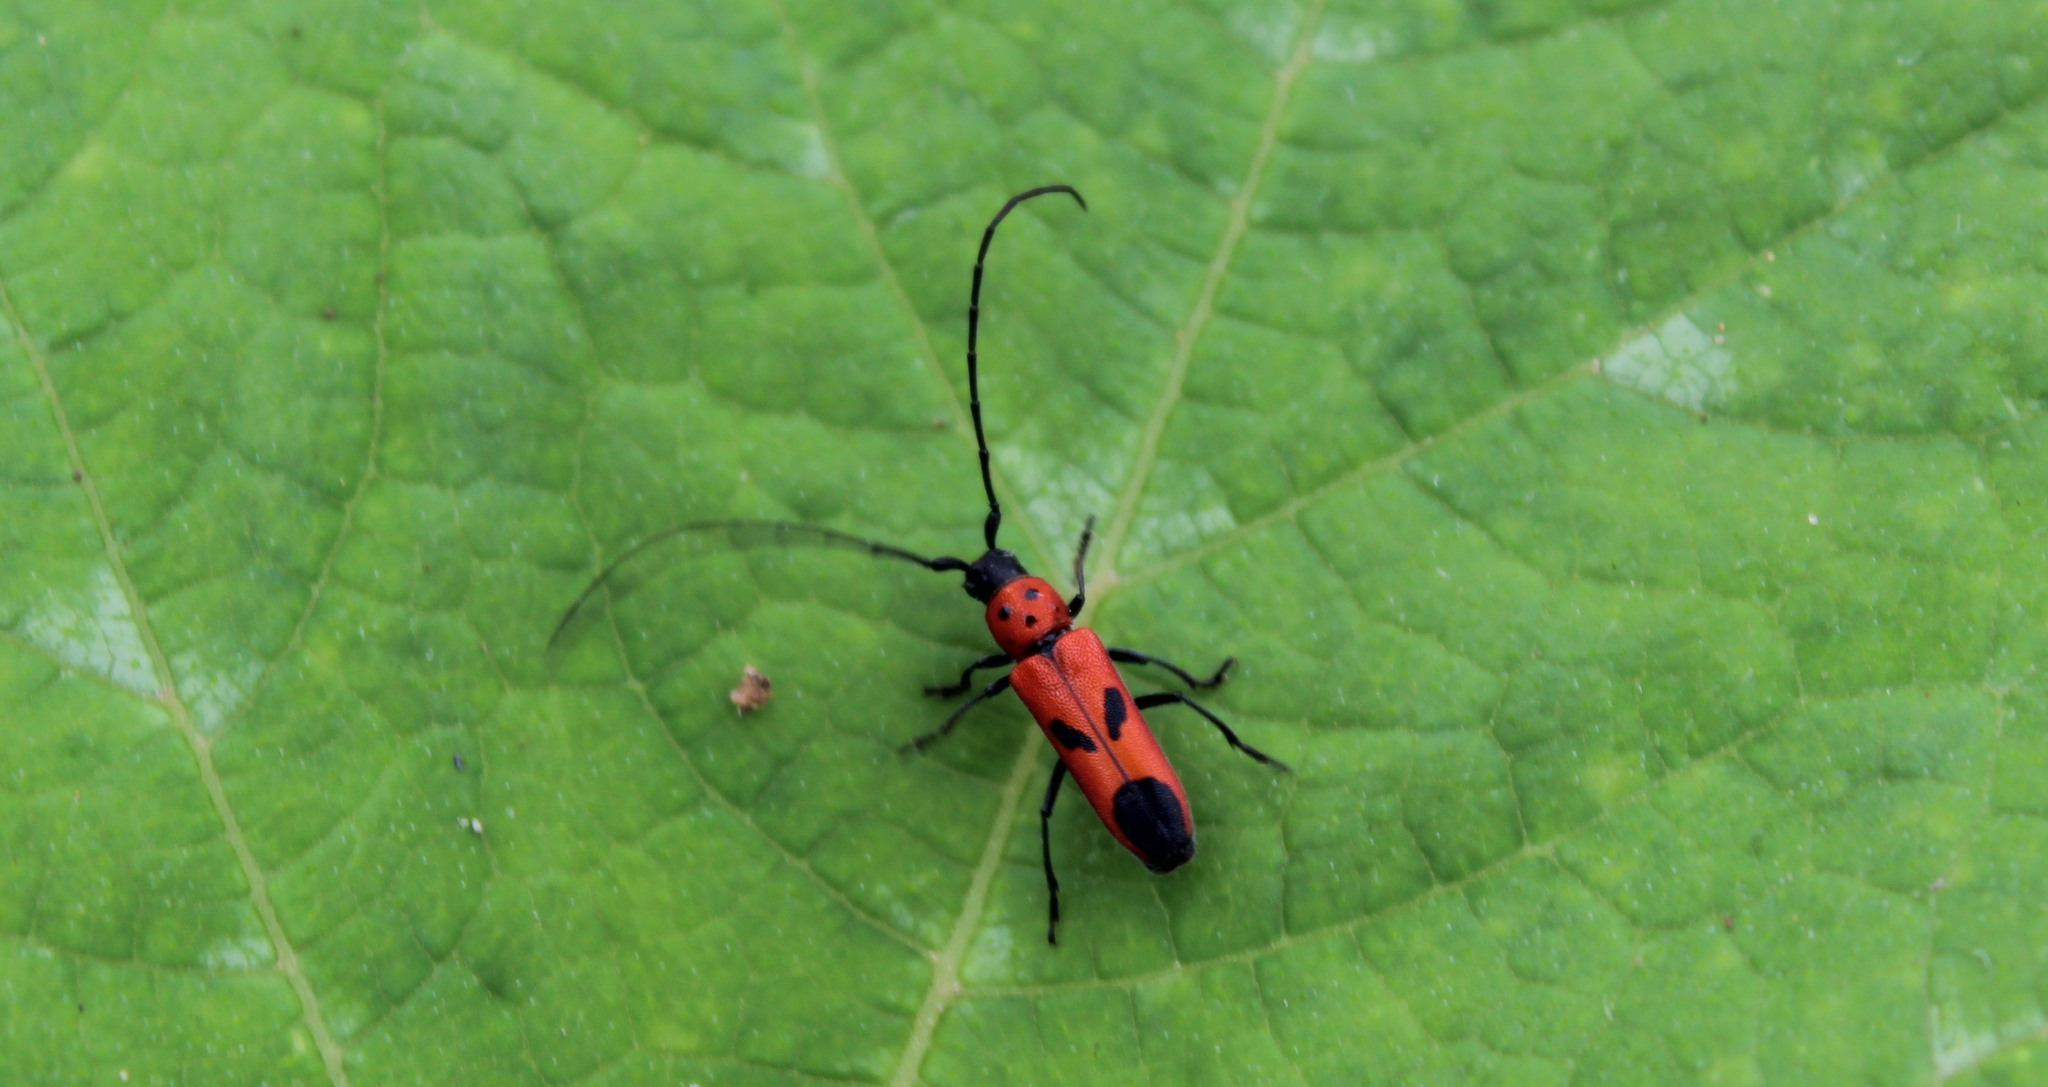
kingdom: Animalia
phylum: Arthropoda
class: Insecta
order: Coleoptera
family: Cerambycidae
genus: Tylosis
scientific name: Tylosis hilaris
